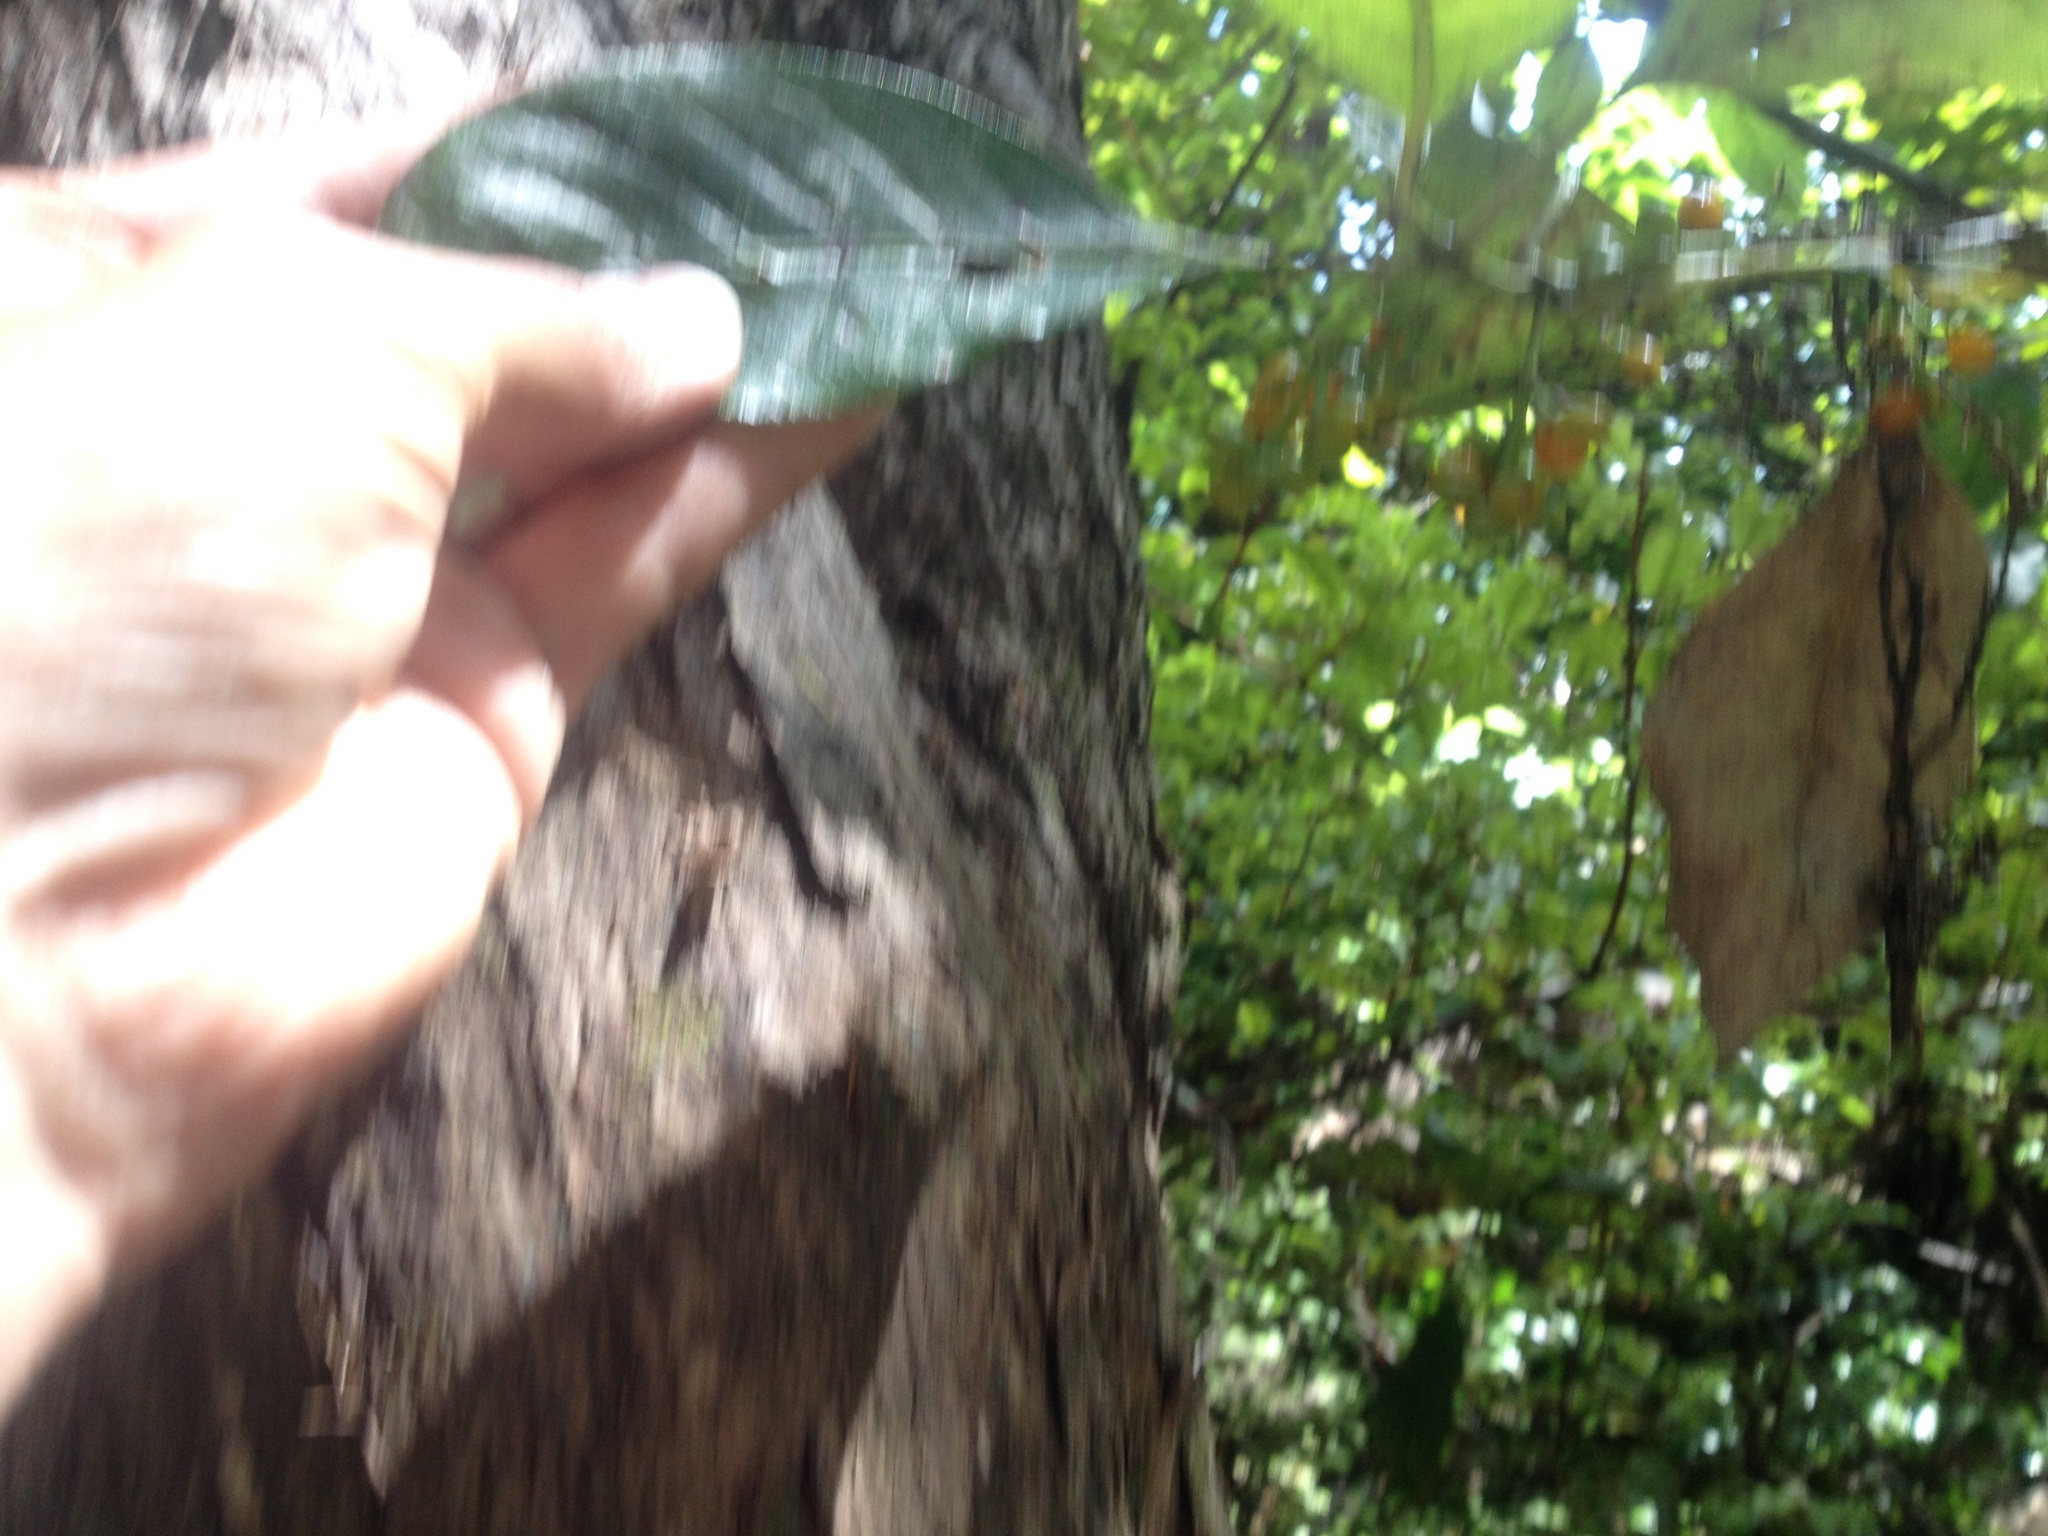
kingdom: Plantae
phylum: Tracheophyta
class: Magnoliopsida
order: Gentianales
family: Rubiaceae
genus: Coprosma
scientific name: Coprosma autumnalis
